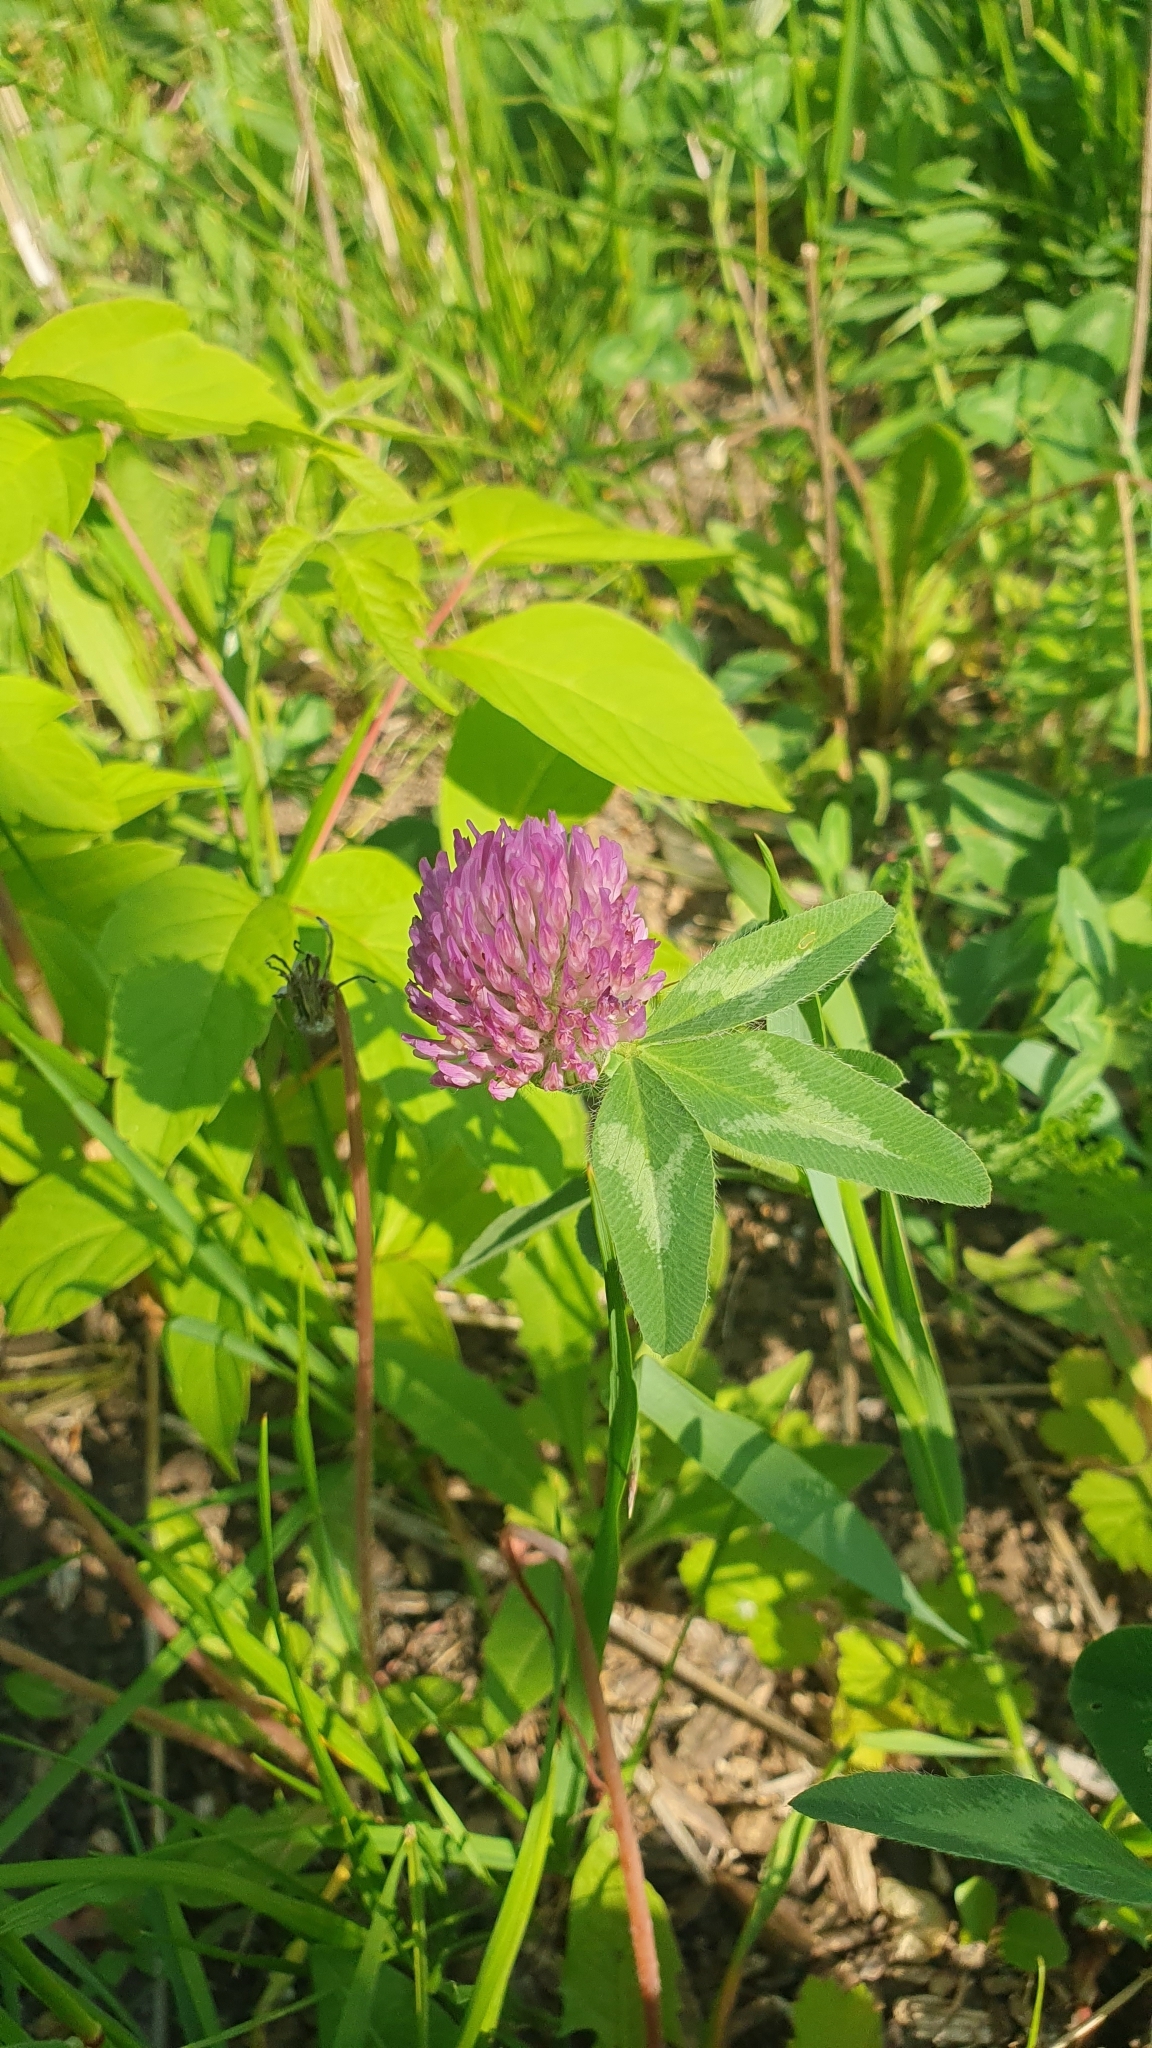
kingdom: Plantae
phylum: Tracheophyta
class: Magnoliopsida
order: Fabales
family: Fabaceae
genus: Trifolium
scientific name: Trifolium pratense
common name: Red clover
